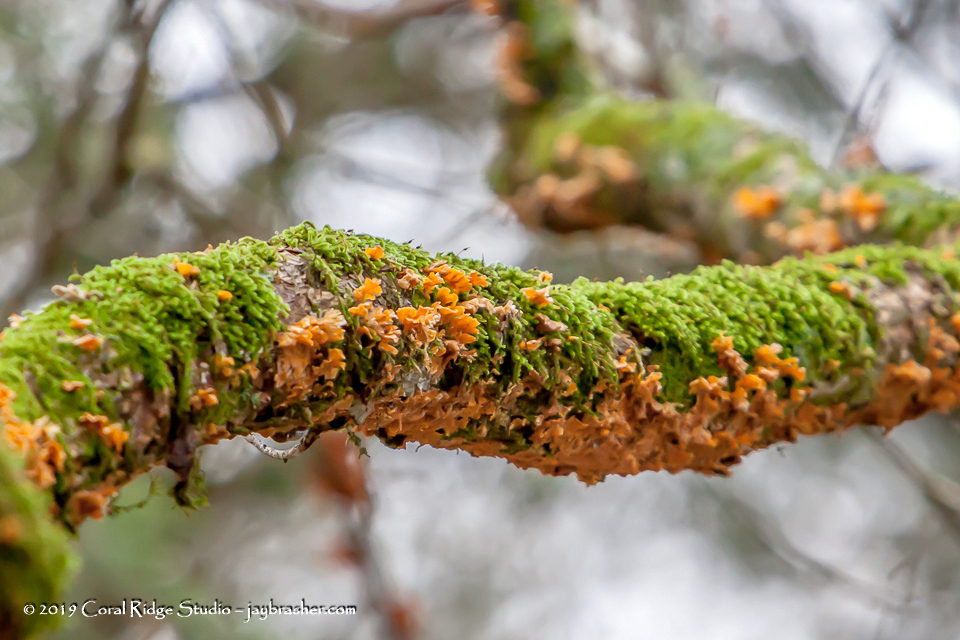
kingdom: Fungi
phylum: Basidiomycota
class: Agaricomycetes
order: Russulales
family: Stereaceae
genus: Stereum
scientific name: Stereum complicatum
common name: Crowded parchment
